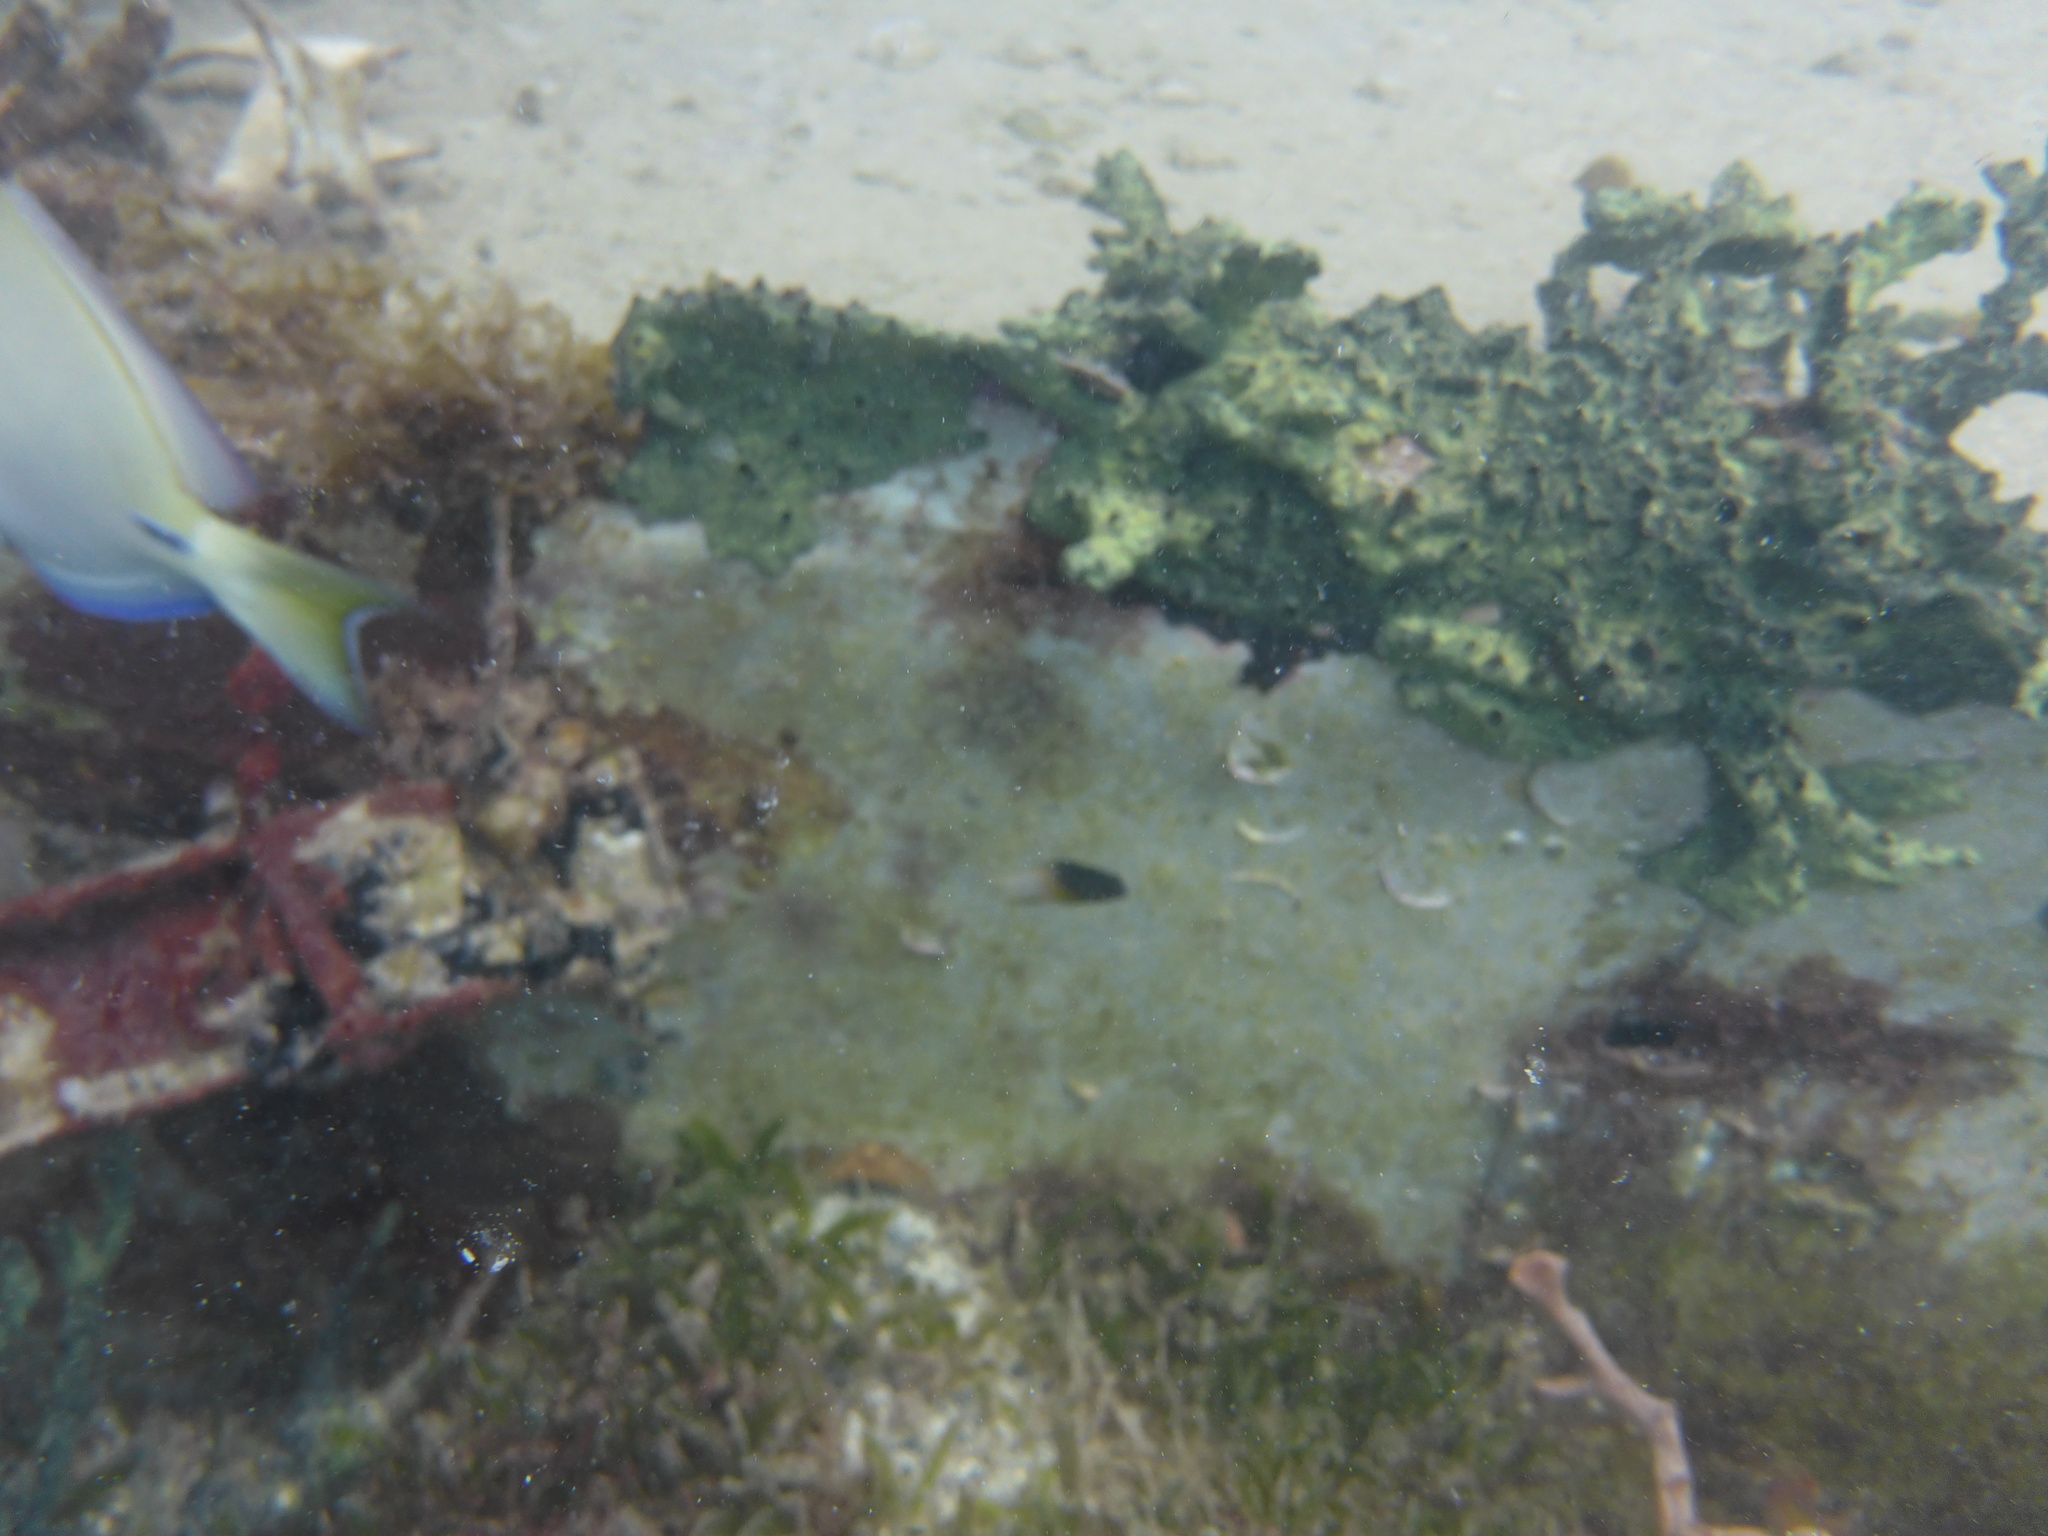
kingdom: Animalia
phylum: Chordata
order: Perciformes
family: Pomacentridae
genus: Stegastes
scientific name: Stegastes partitus
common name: Bicolor damselfish
